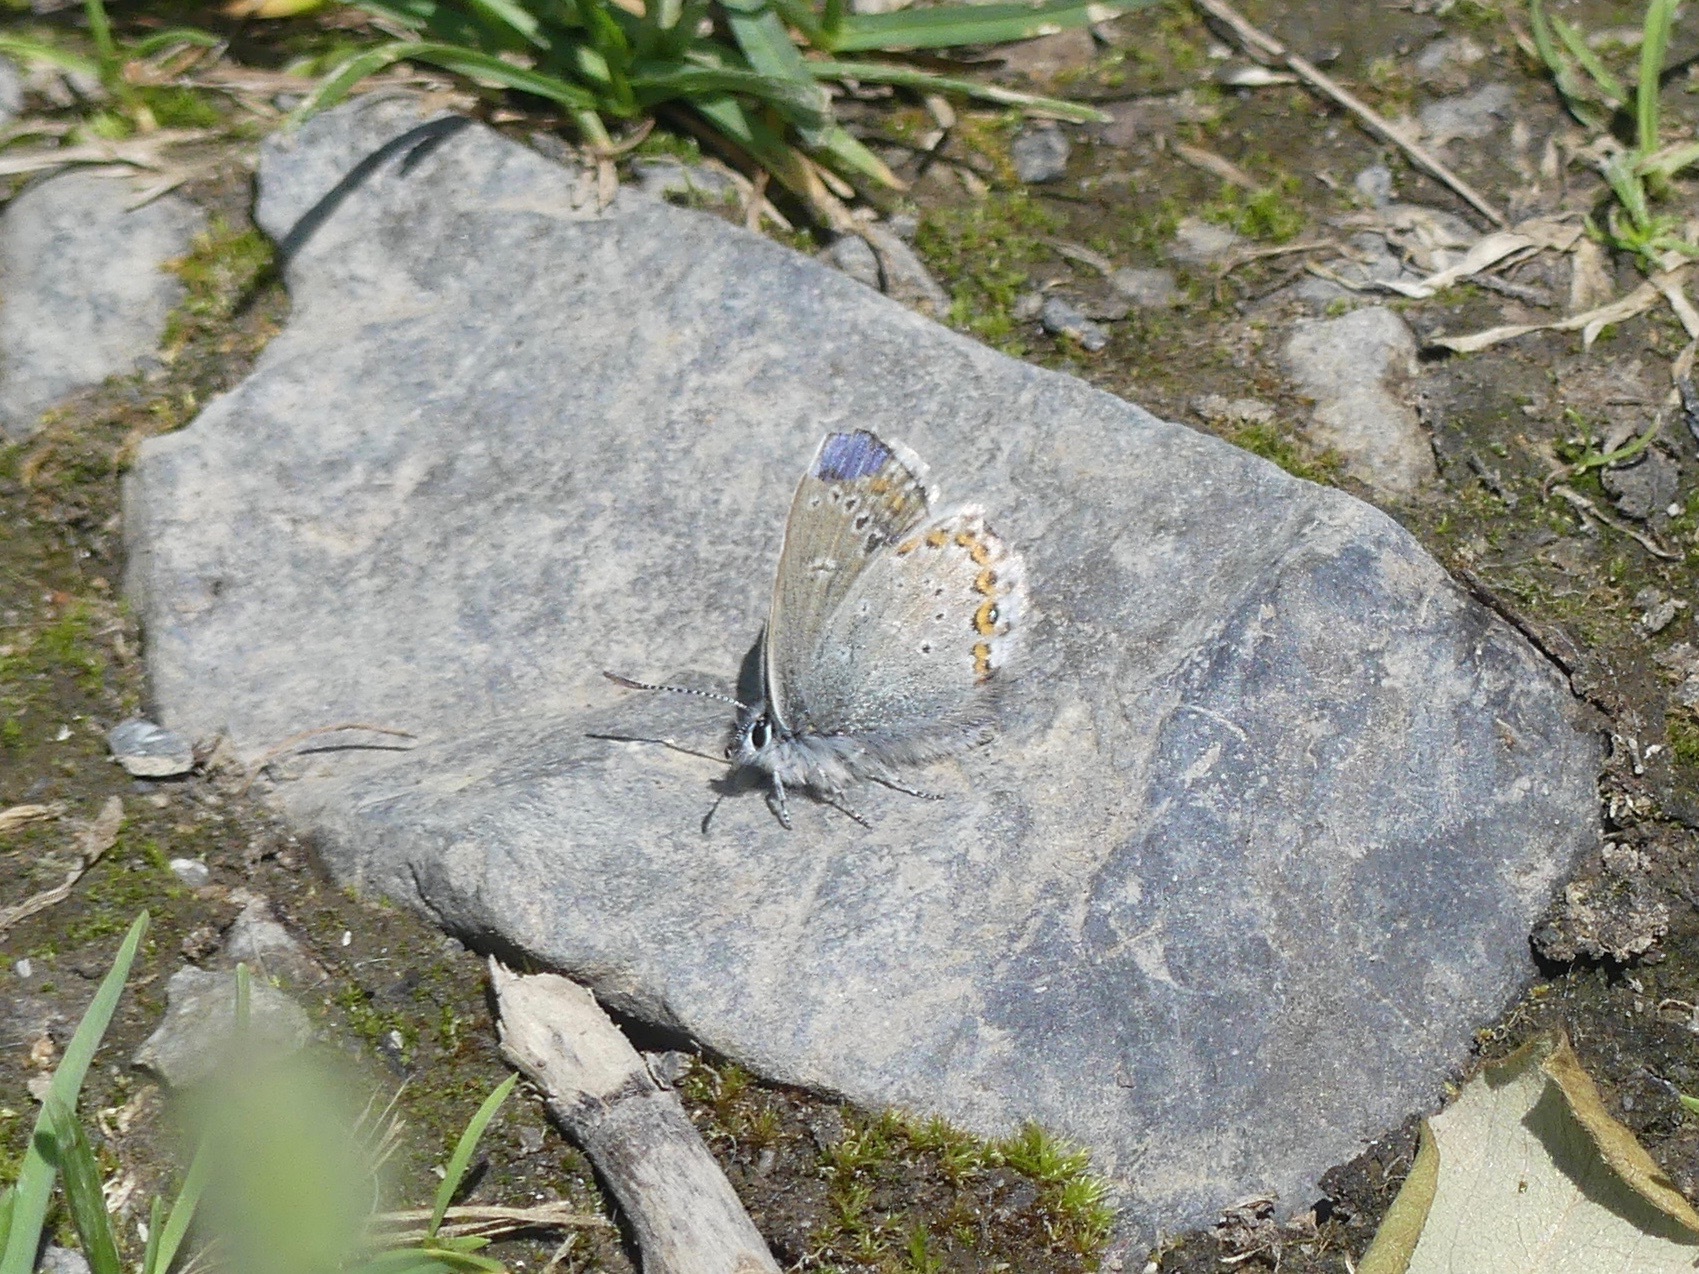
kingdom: Animalia
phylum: Arthropoda
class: Insecta
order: Lepidoptera
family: Lycaenidae
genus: Lycaeides
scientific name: Lycaeides idas
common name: Northern blue
